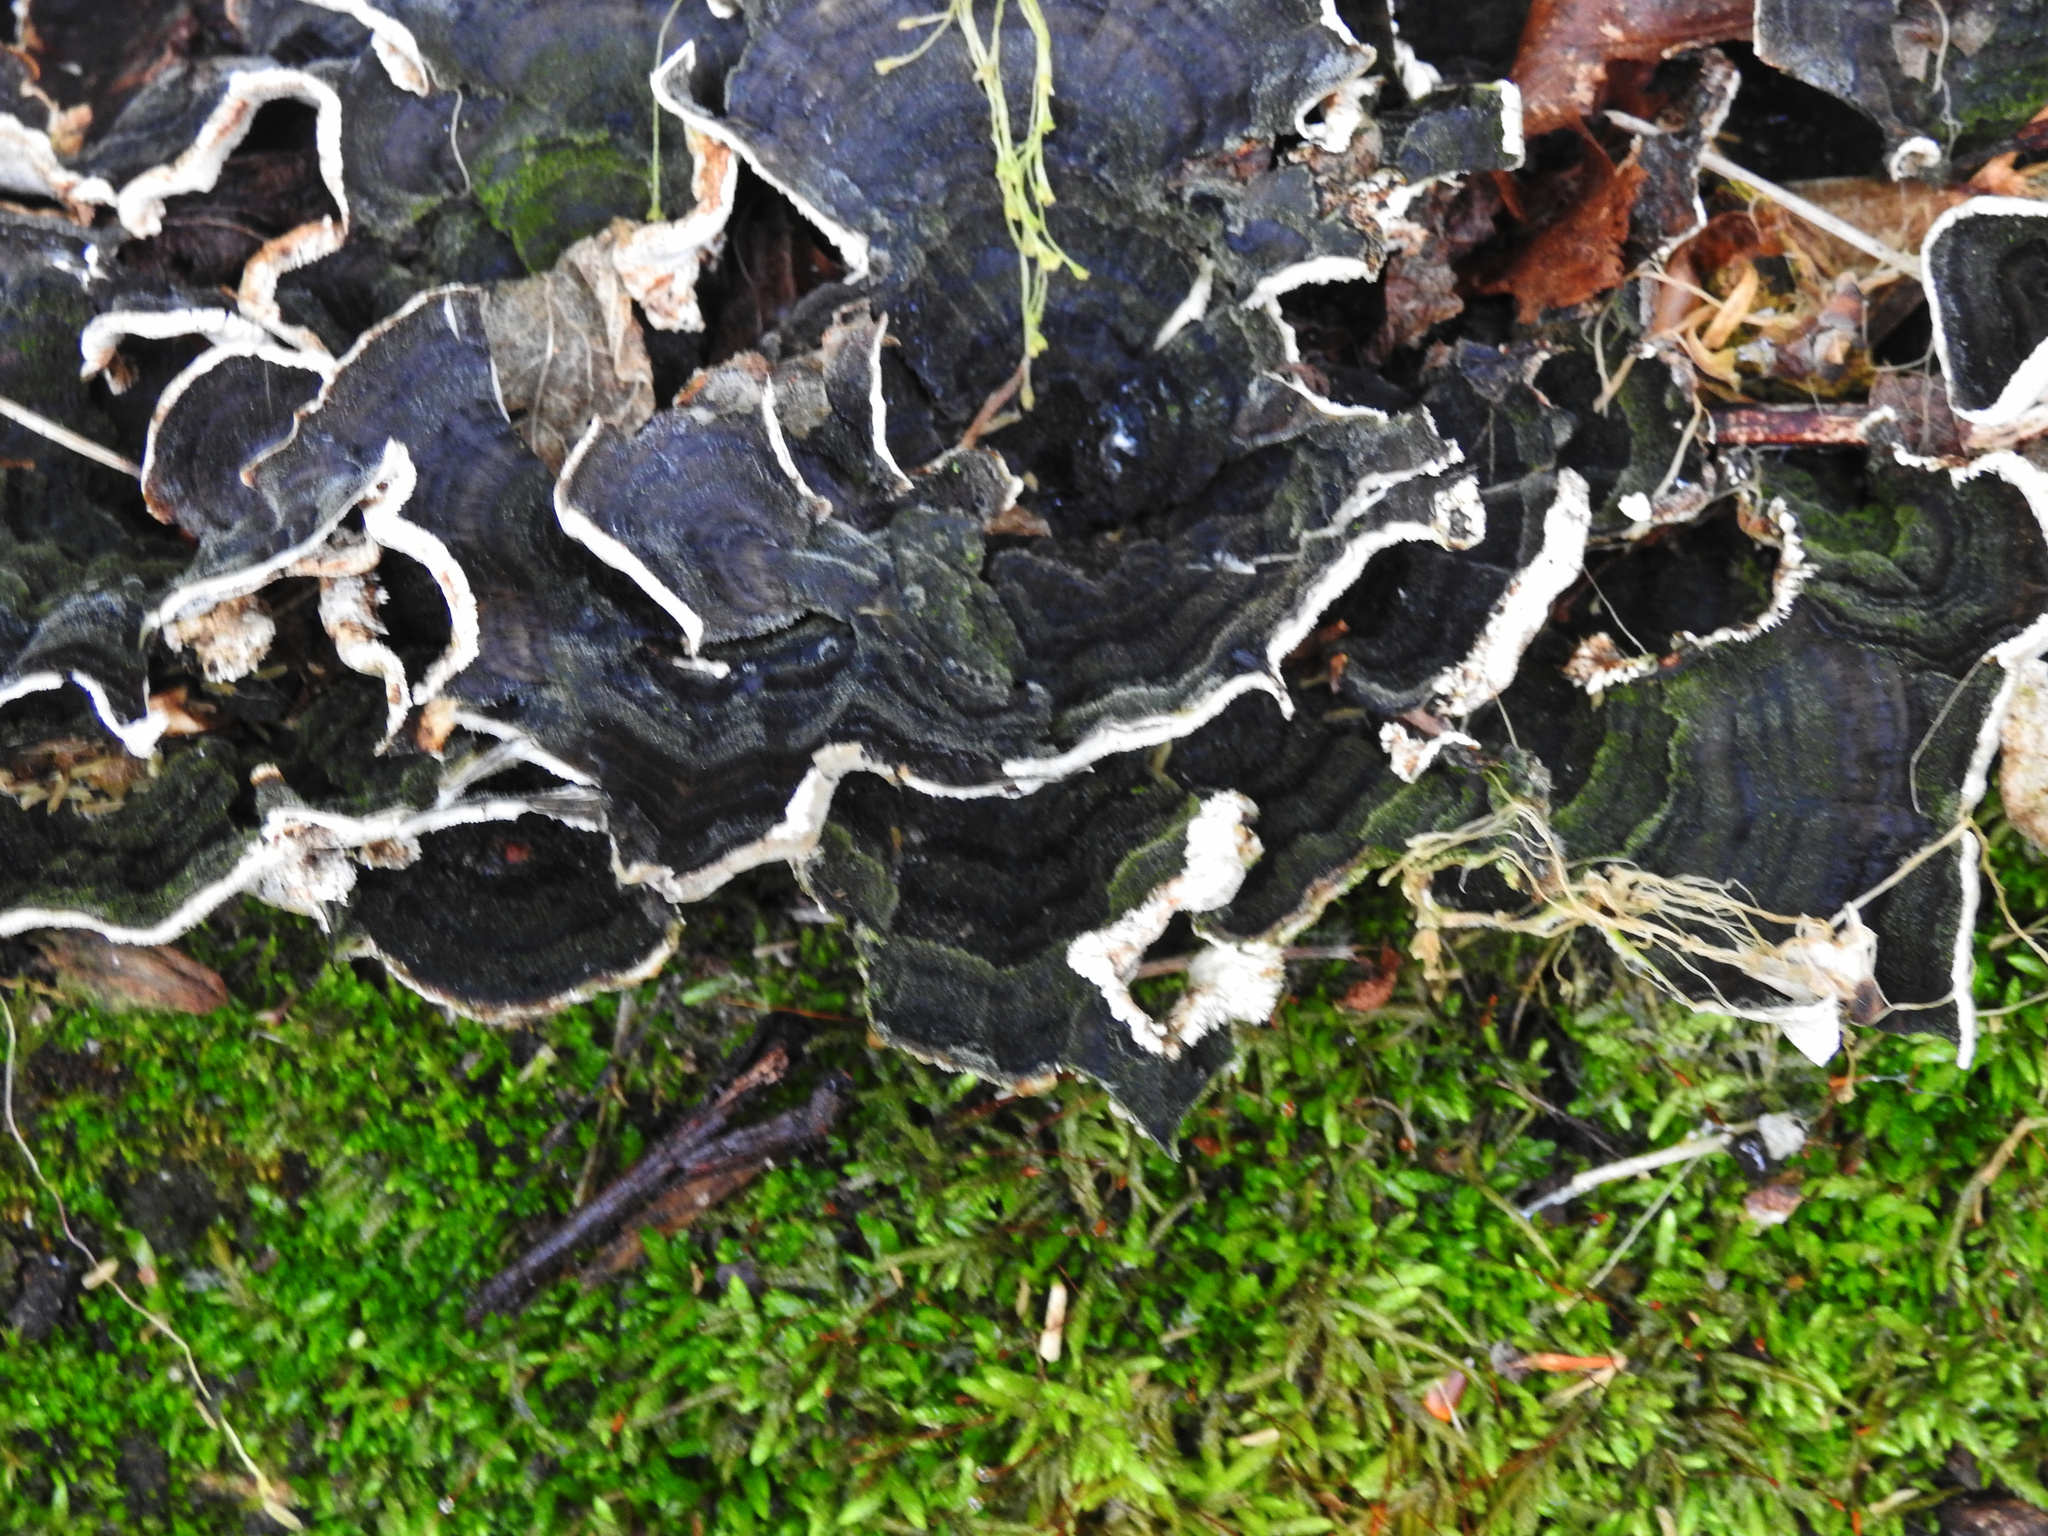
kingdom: Fungi
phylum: Basidiomycota
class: Agaricomycetes
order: Polyporales
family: Polyporaceae
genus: Trametes
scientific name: Trametes versicolor
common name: Turkeytail
